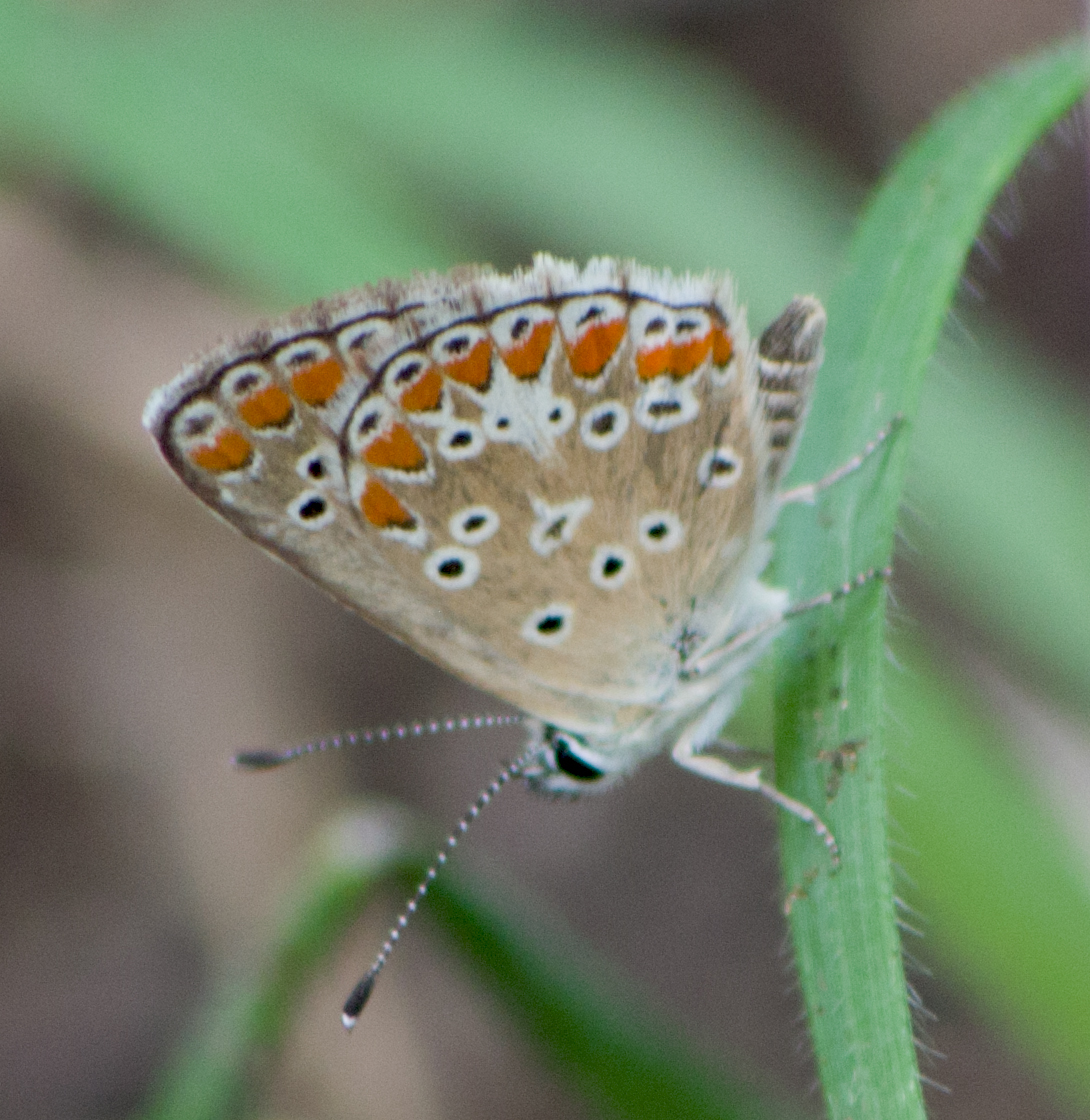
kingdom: Animalia
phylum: Arthropoda
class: Insecta
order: Lepidoptera
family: Lycaenidae
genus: Aricia
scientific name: Aricia agestis
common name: Brown argus
